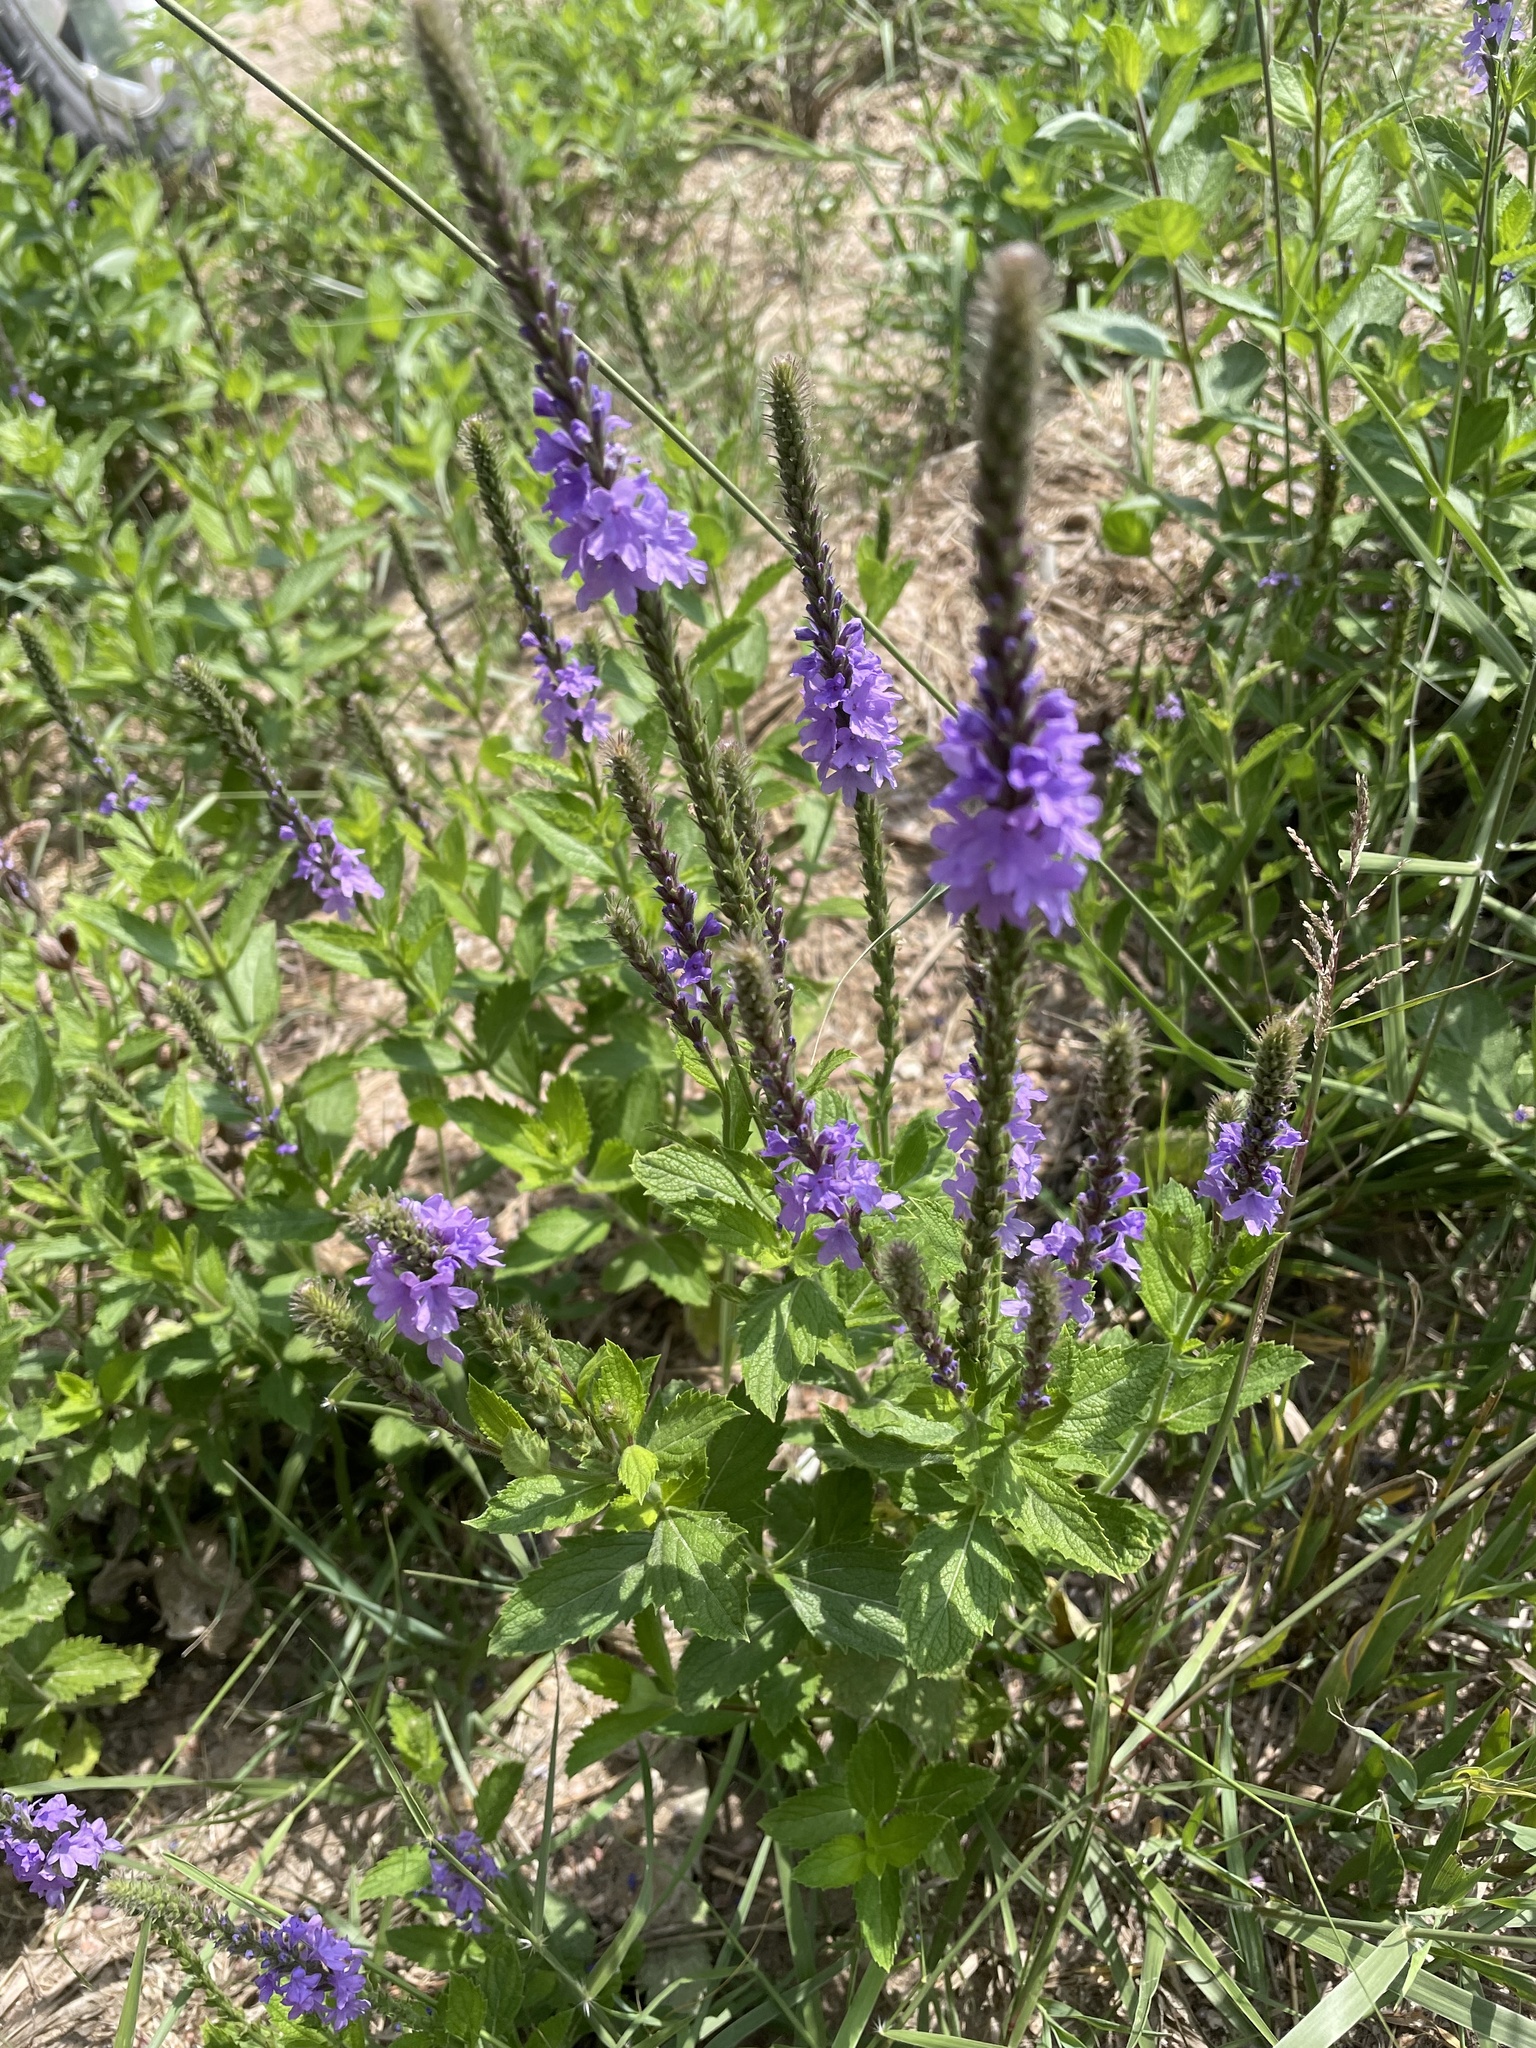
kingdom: Plantae
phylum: Tracheophyta
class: Magnoliopsida
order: Lamiales
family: Verbenaceae
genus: Verbena
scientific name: Verbena stricta
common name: Hoary vervain
